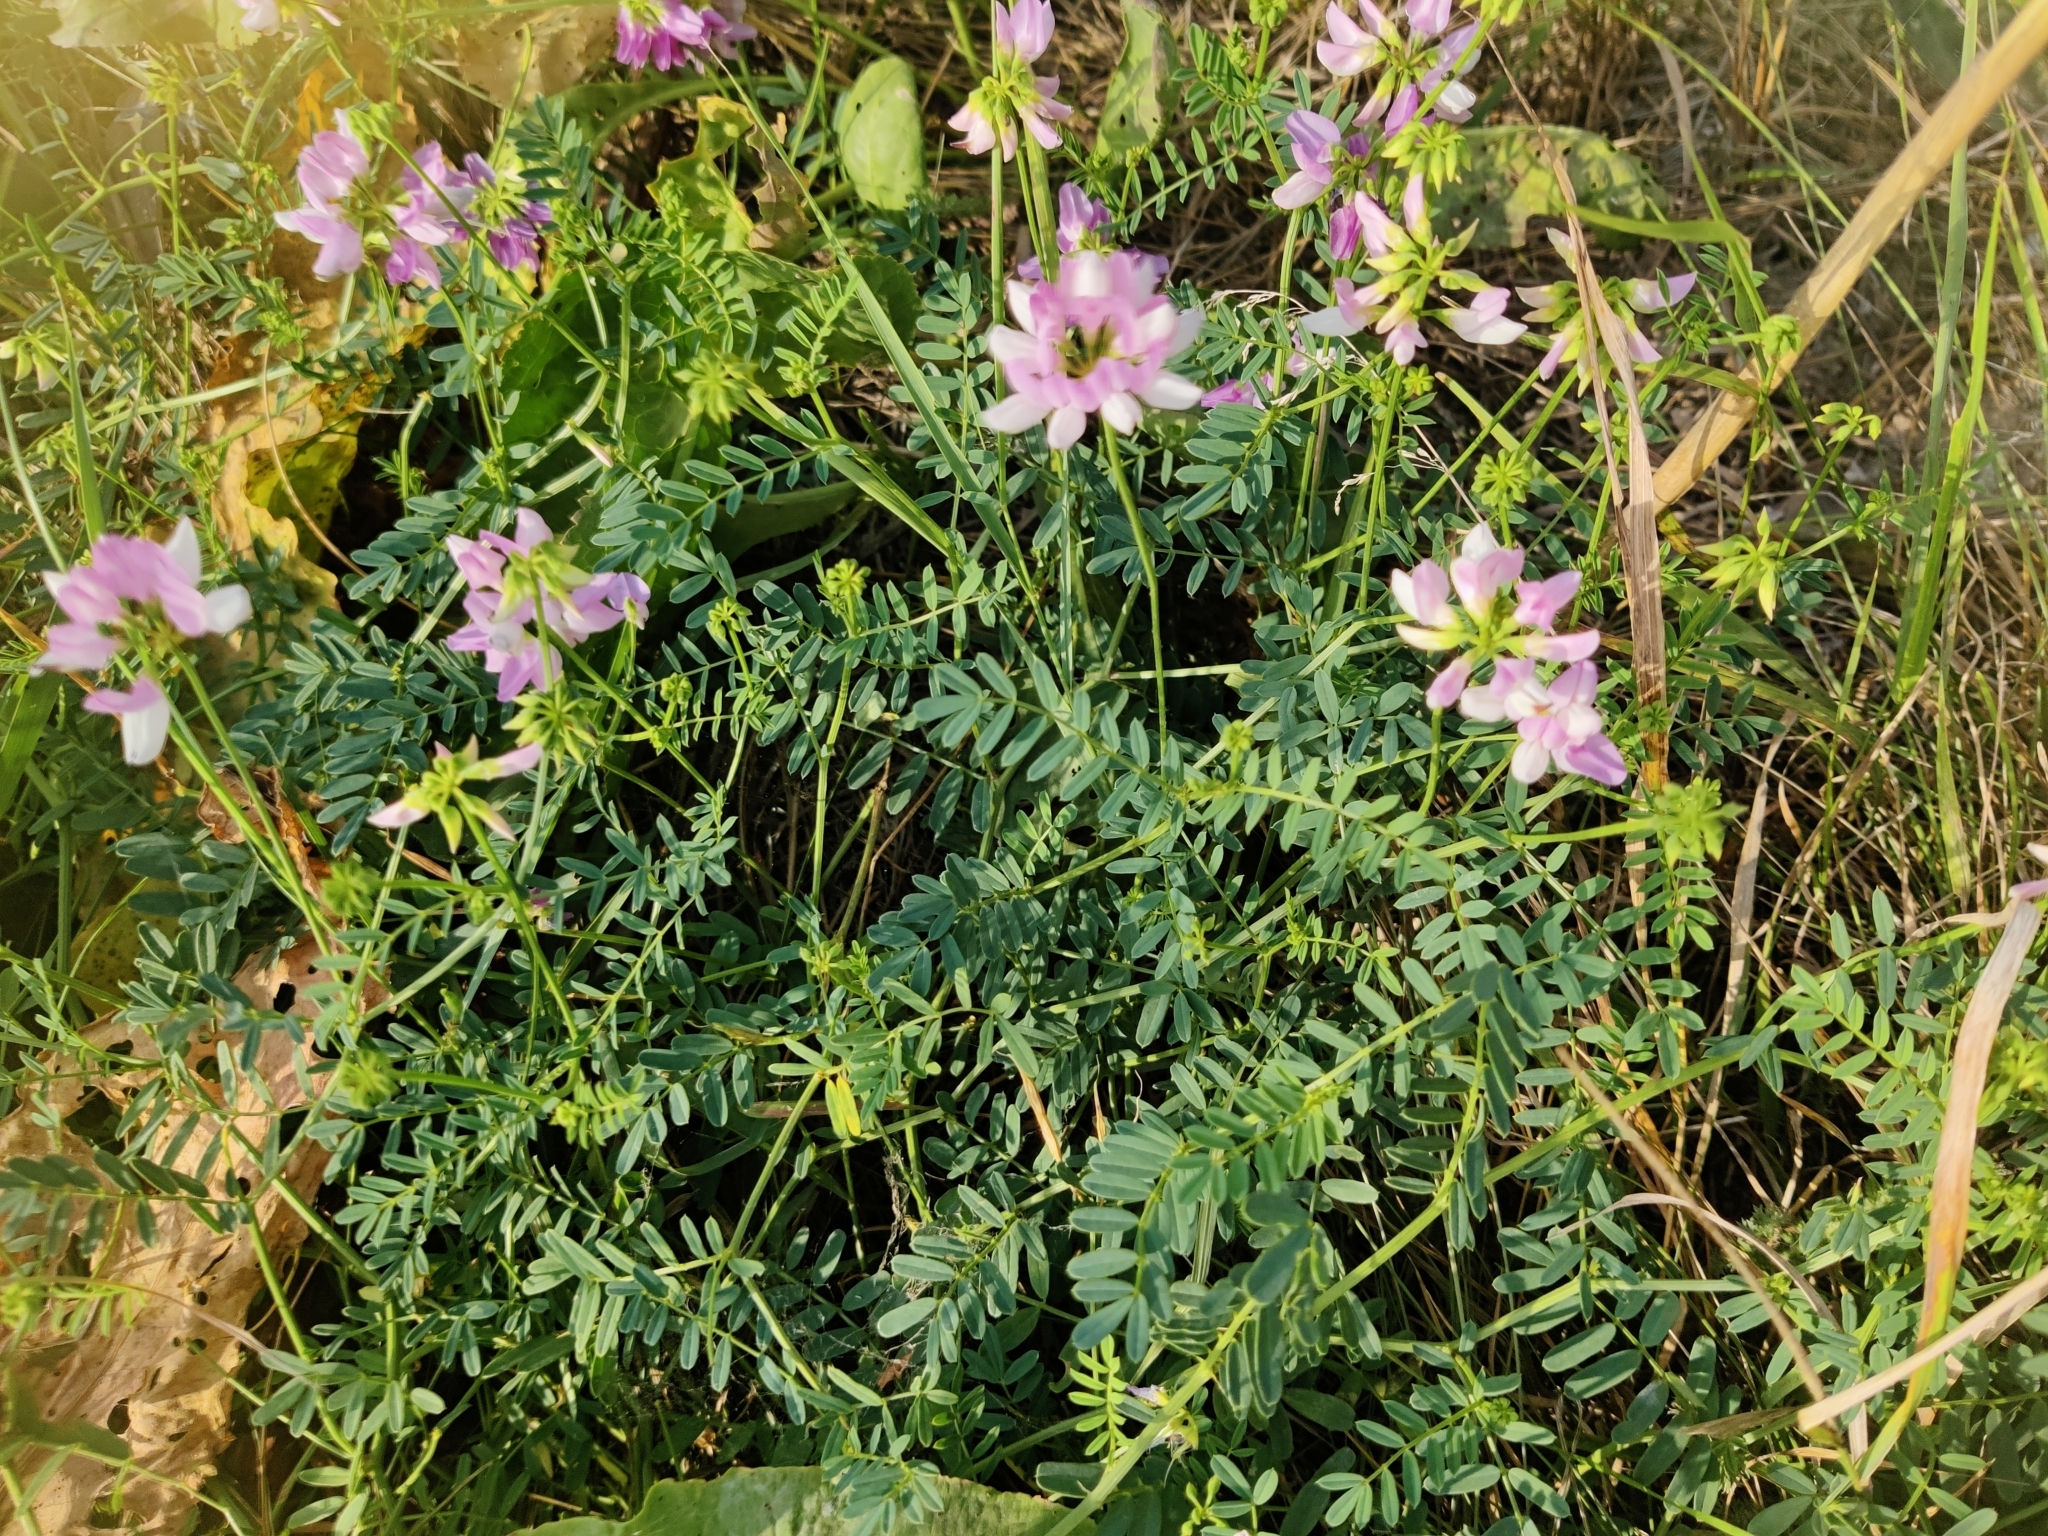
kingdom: Plantae
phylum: Tracheophyta
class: Magnoliopsida
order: Fabales
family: Fabaceae
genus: Coronilla
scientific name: Coronilla varia
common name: Crownvetch
